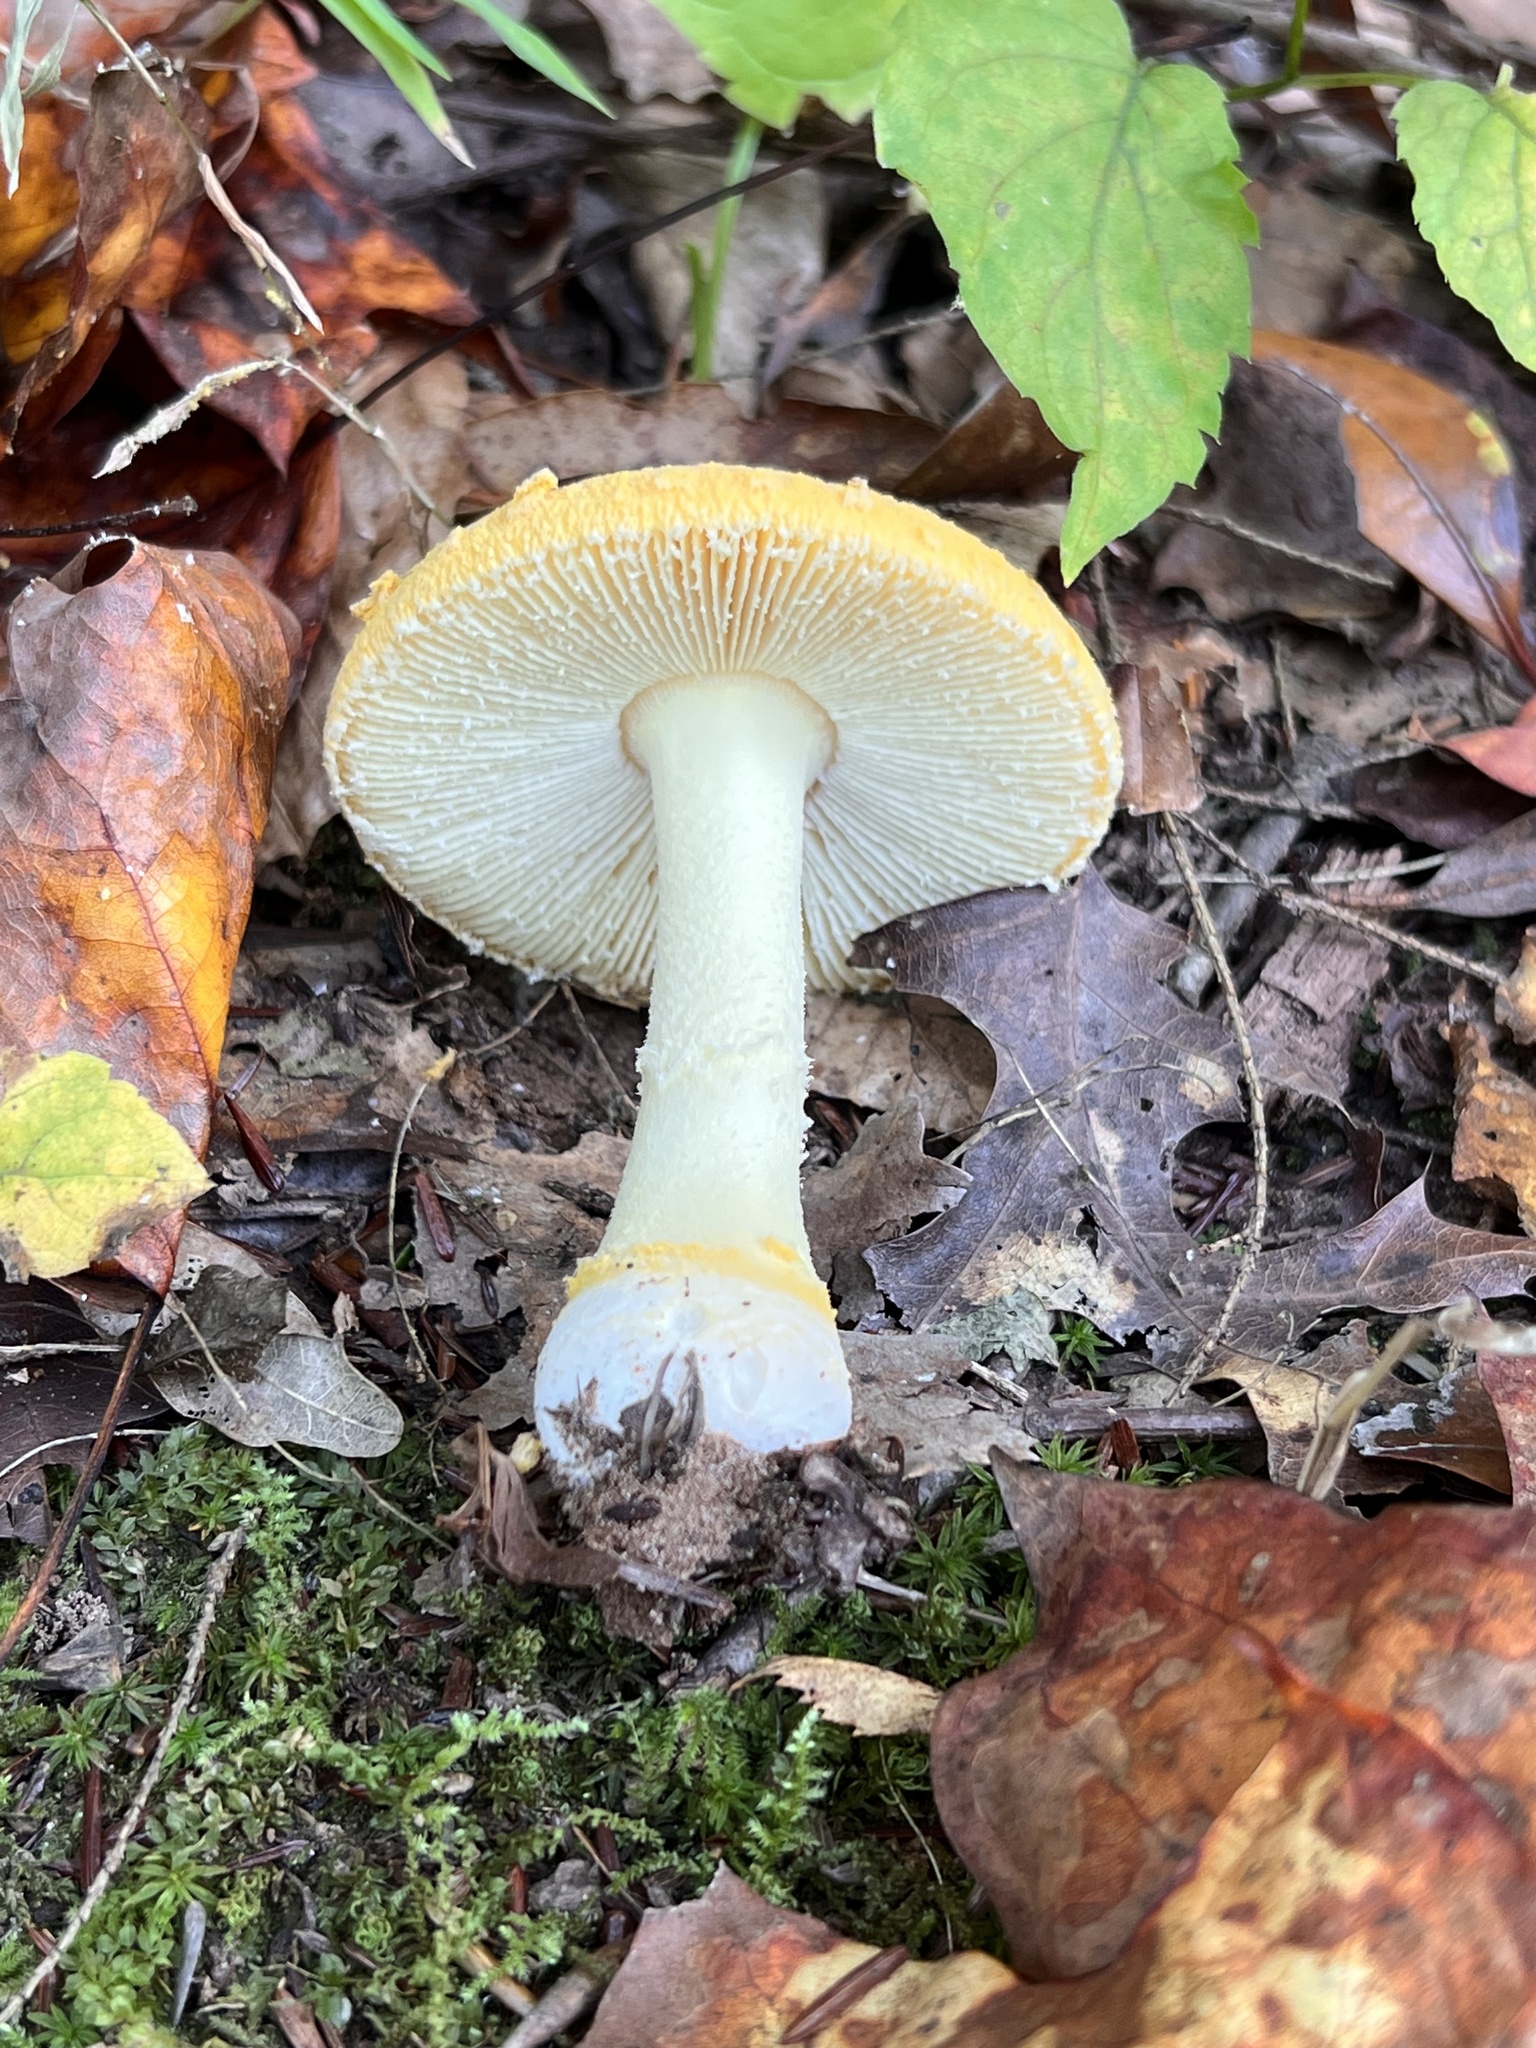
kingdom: Fungi
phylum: Basidiomycota
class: Agaricomycetes
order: Agaricales
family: Amanitaceae
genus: Amanita
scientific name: Amanita wellsii
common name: Salmon amanita
